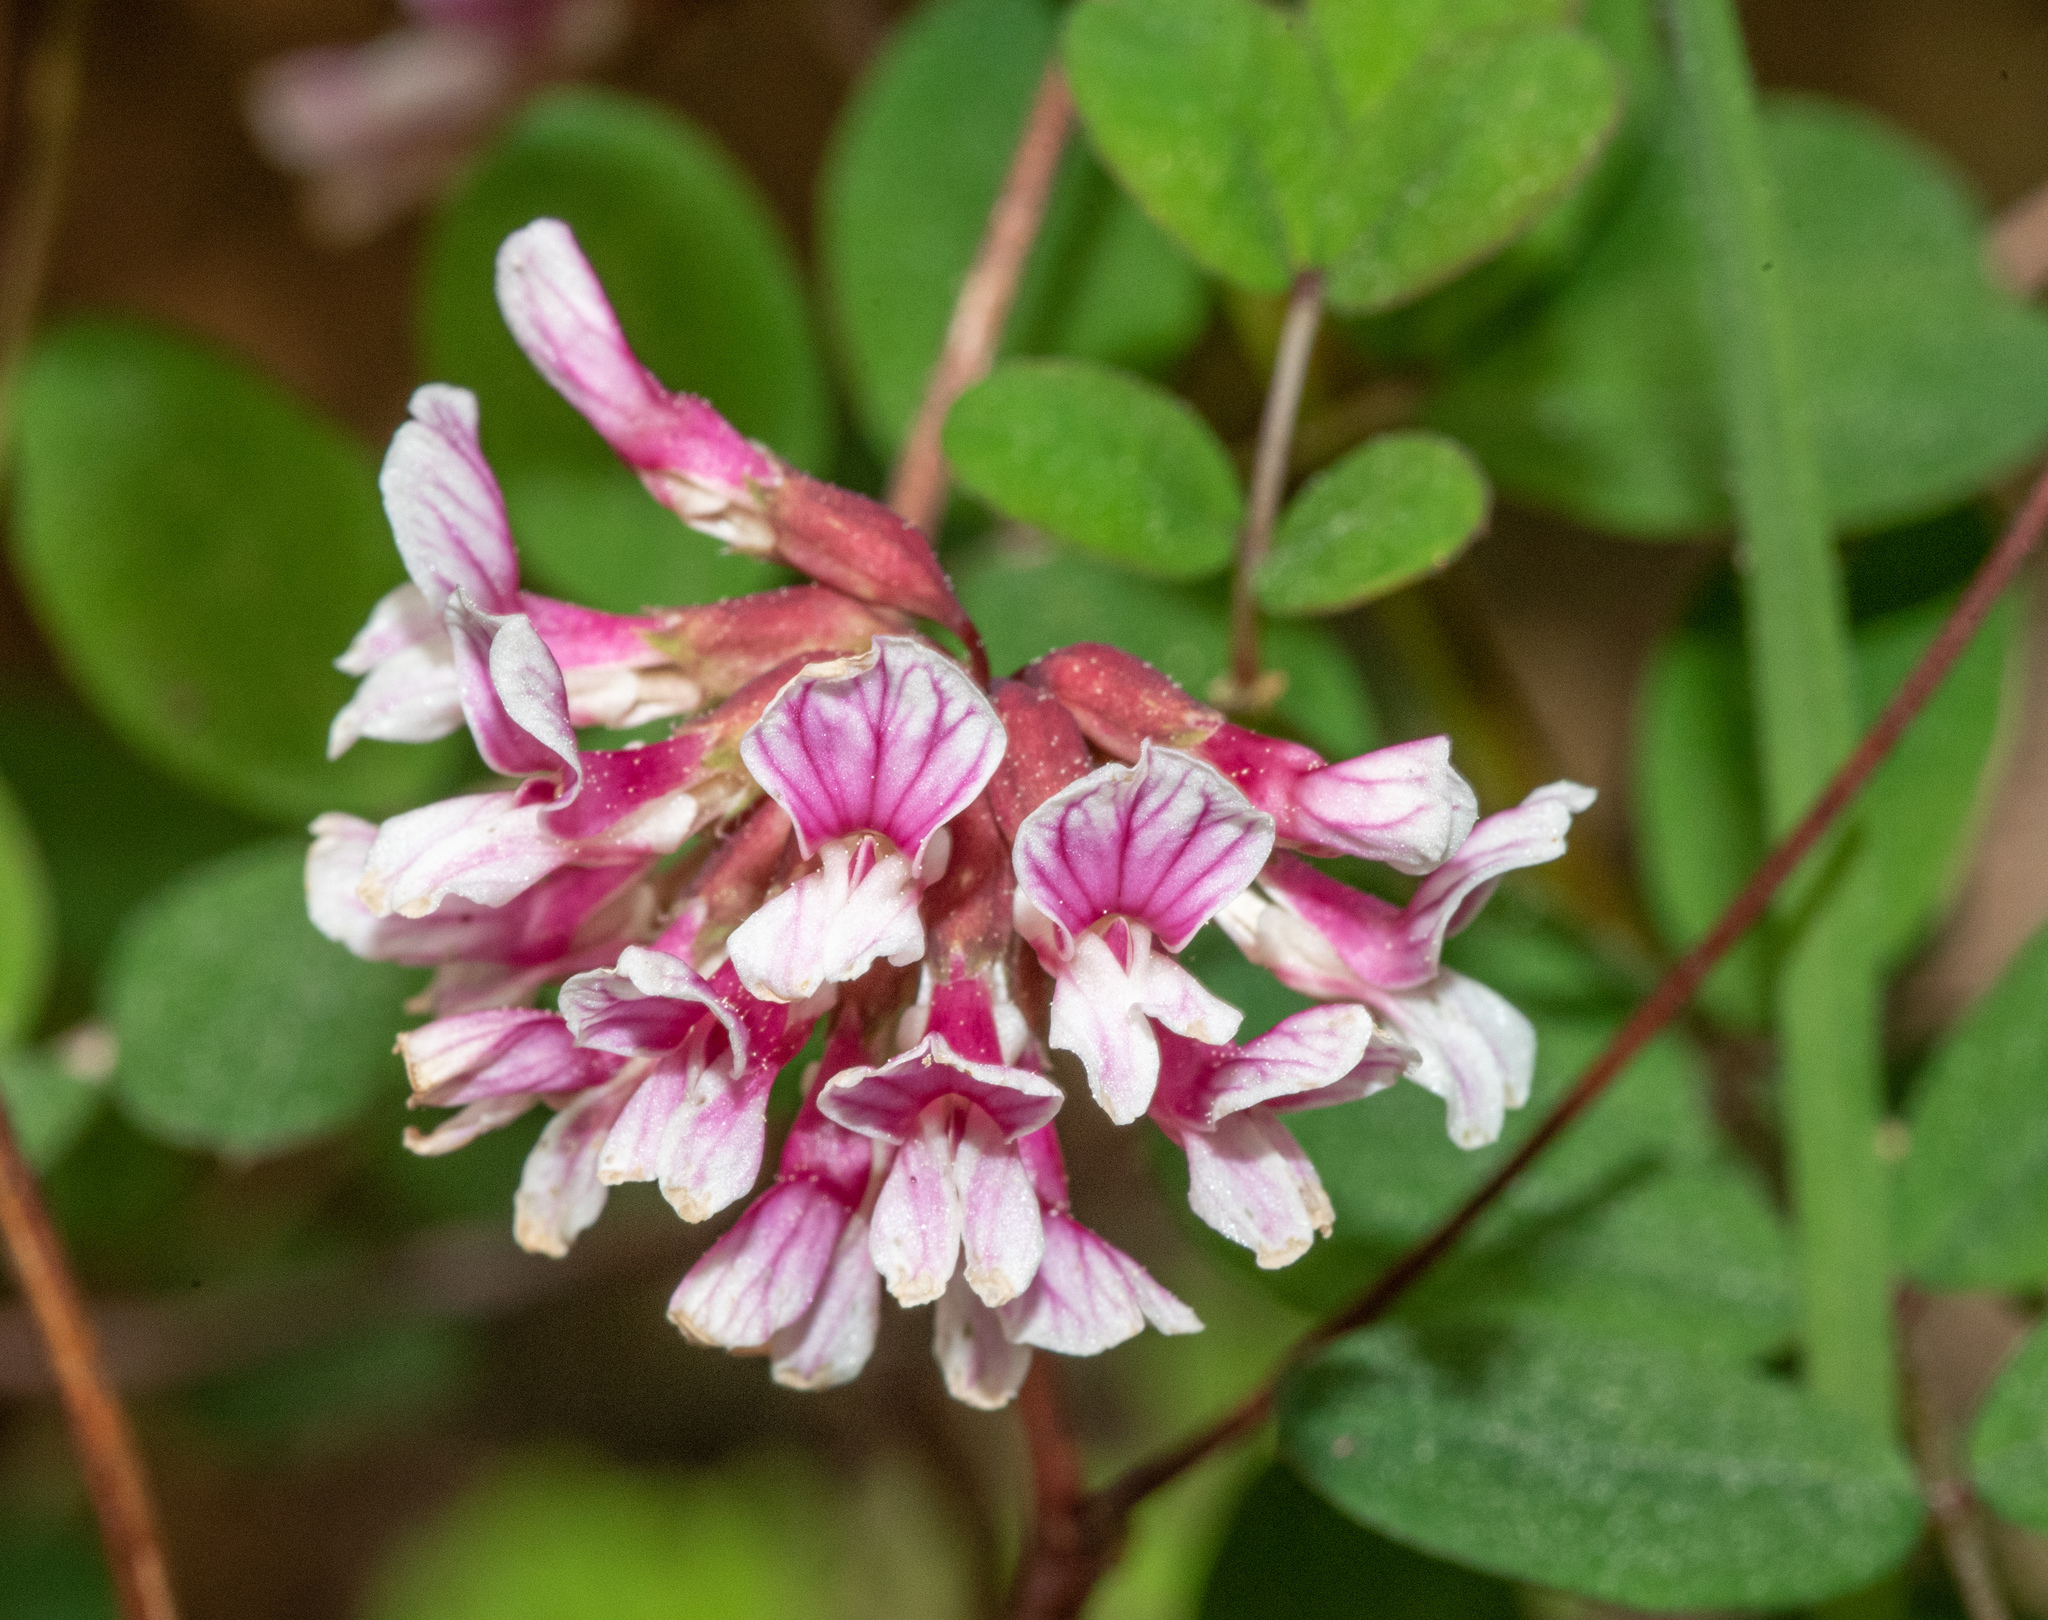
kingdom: Plantae
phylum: Tracheophyta
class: Magnoliopsida
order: Fabales
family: Fabaceae
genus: Hosackia
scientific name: Hosackia rosea
